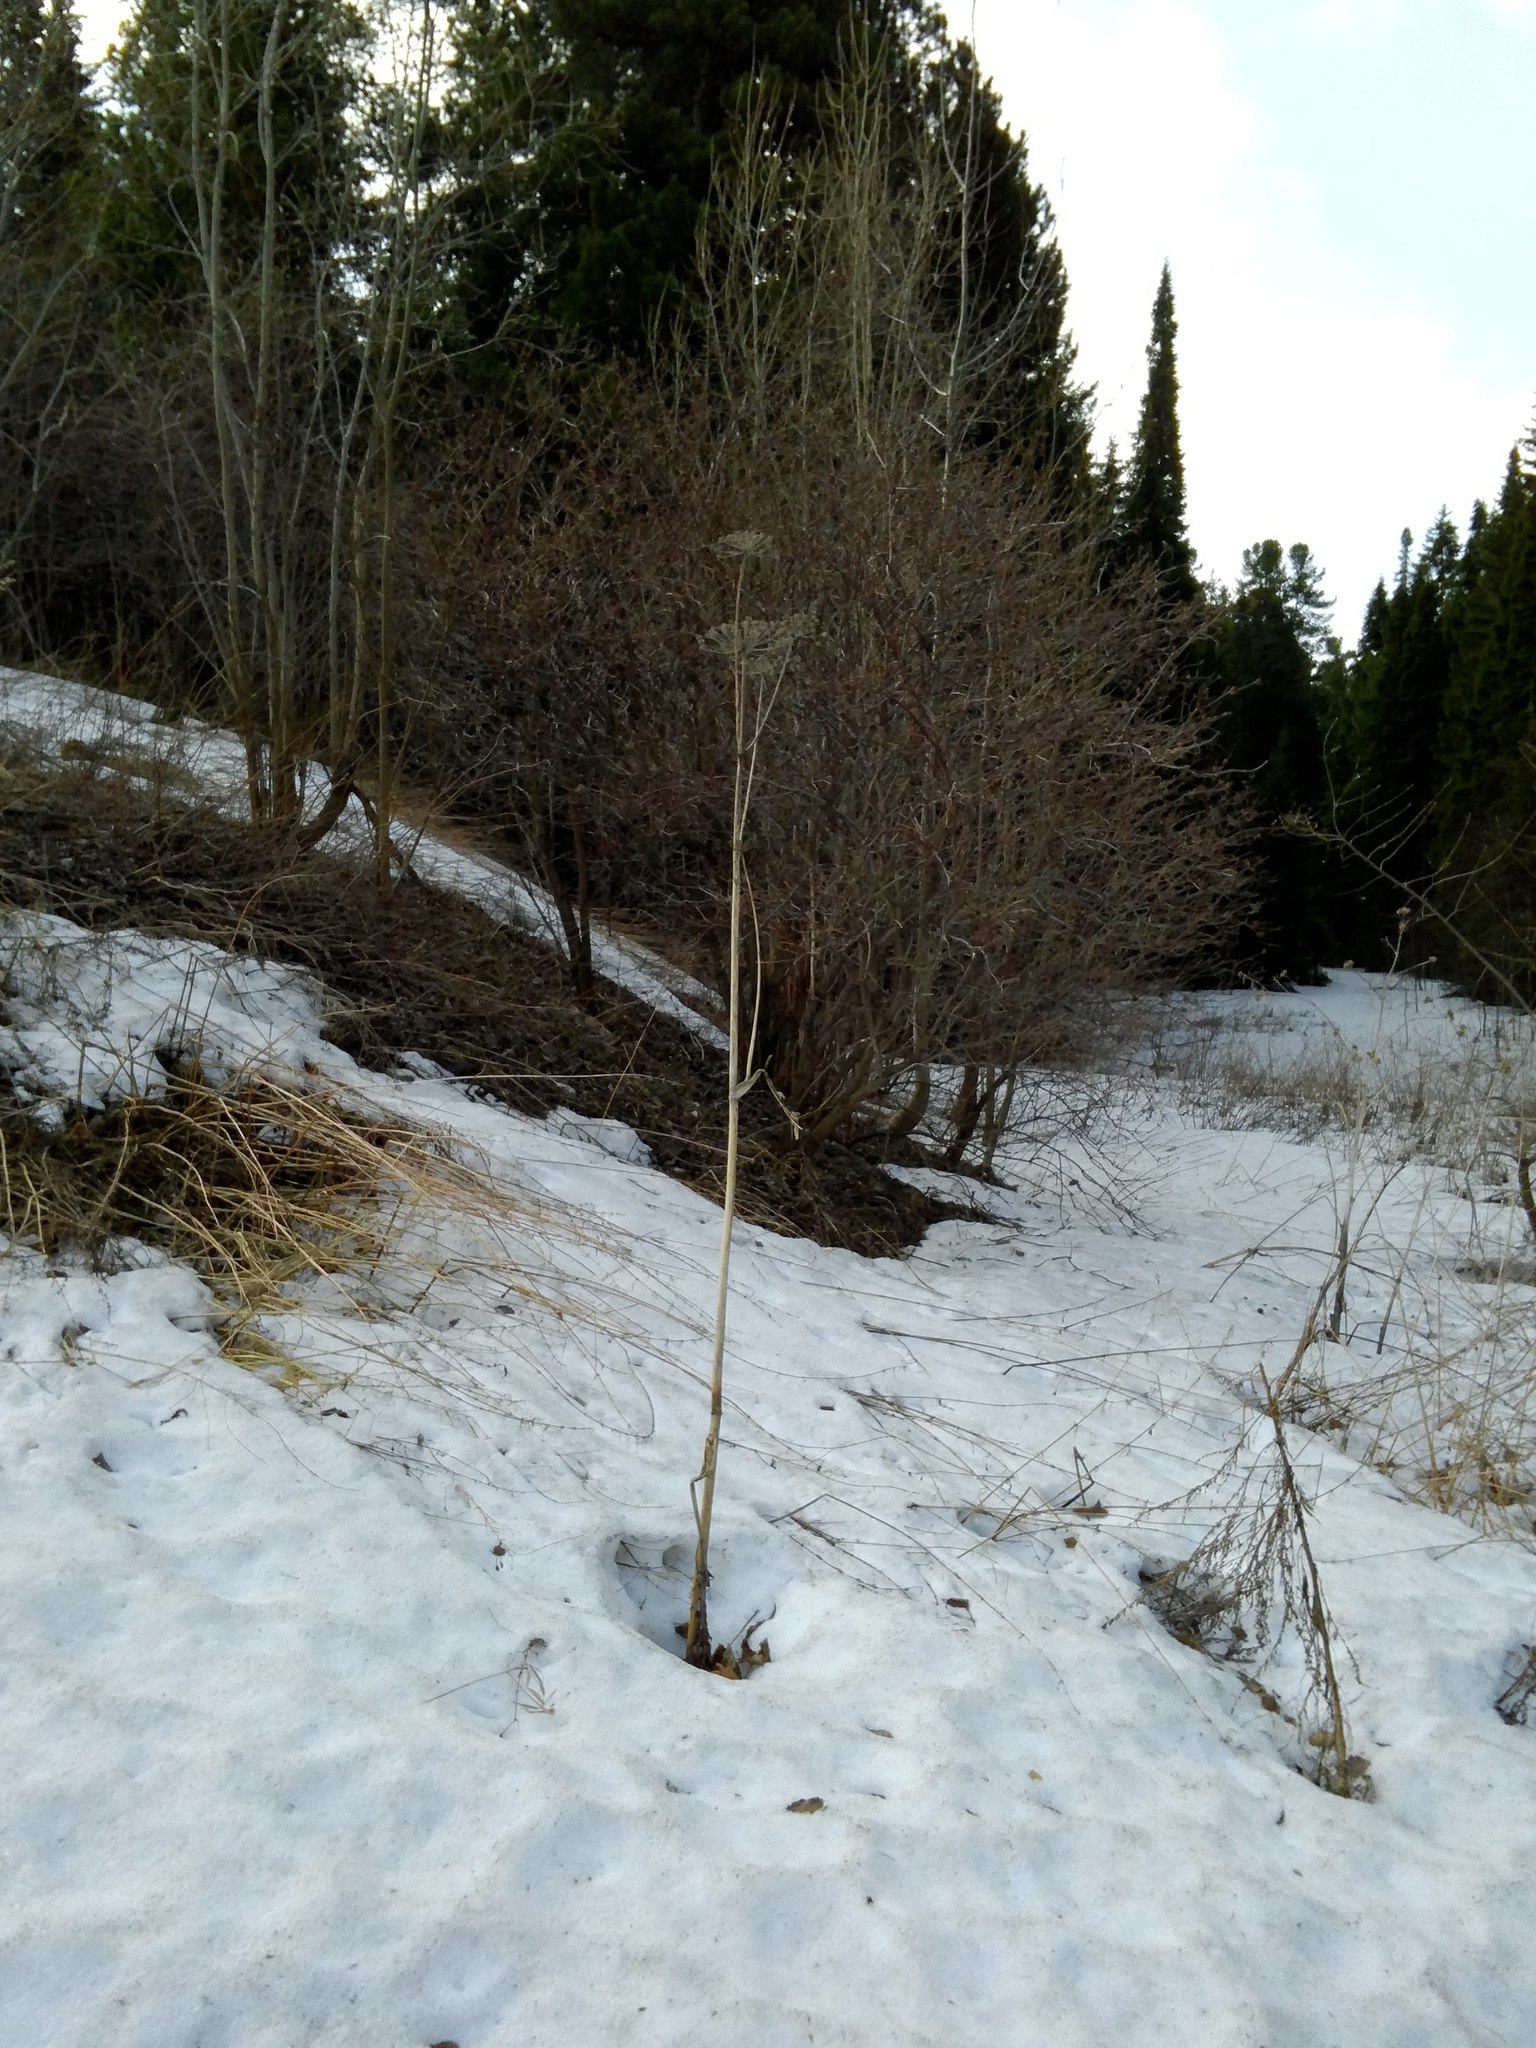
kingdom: Plantae
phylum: Tracheophyta
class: Magnoliopsida
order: Apiales
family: Apiaceae
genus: Angelica
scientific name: Angelica sylvestris
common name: Wild angelica
